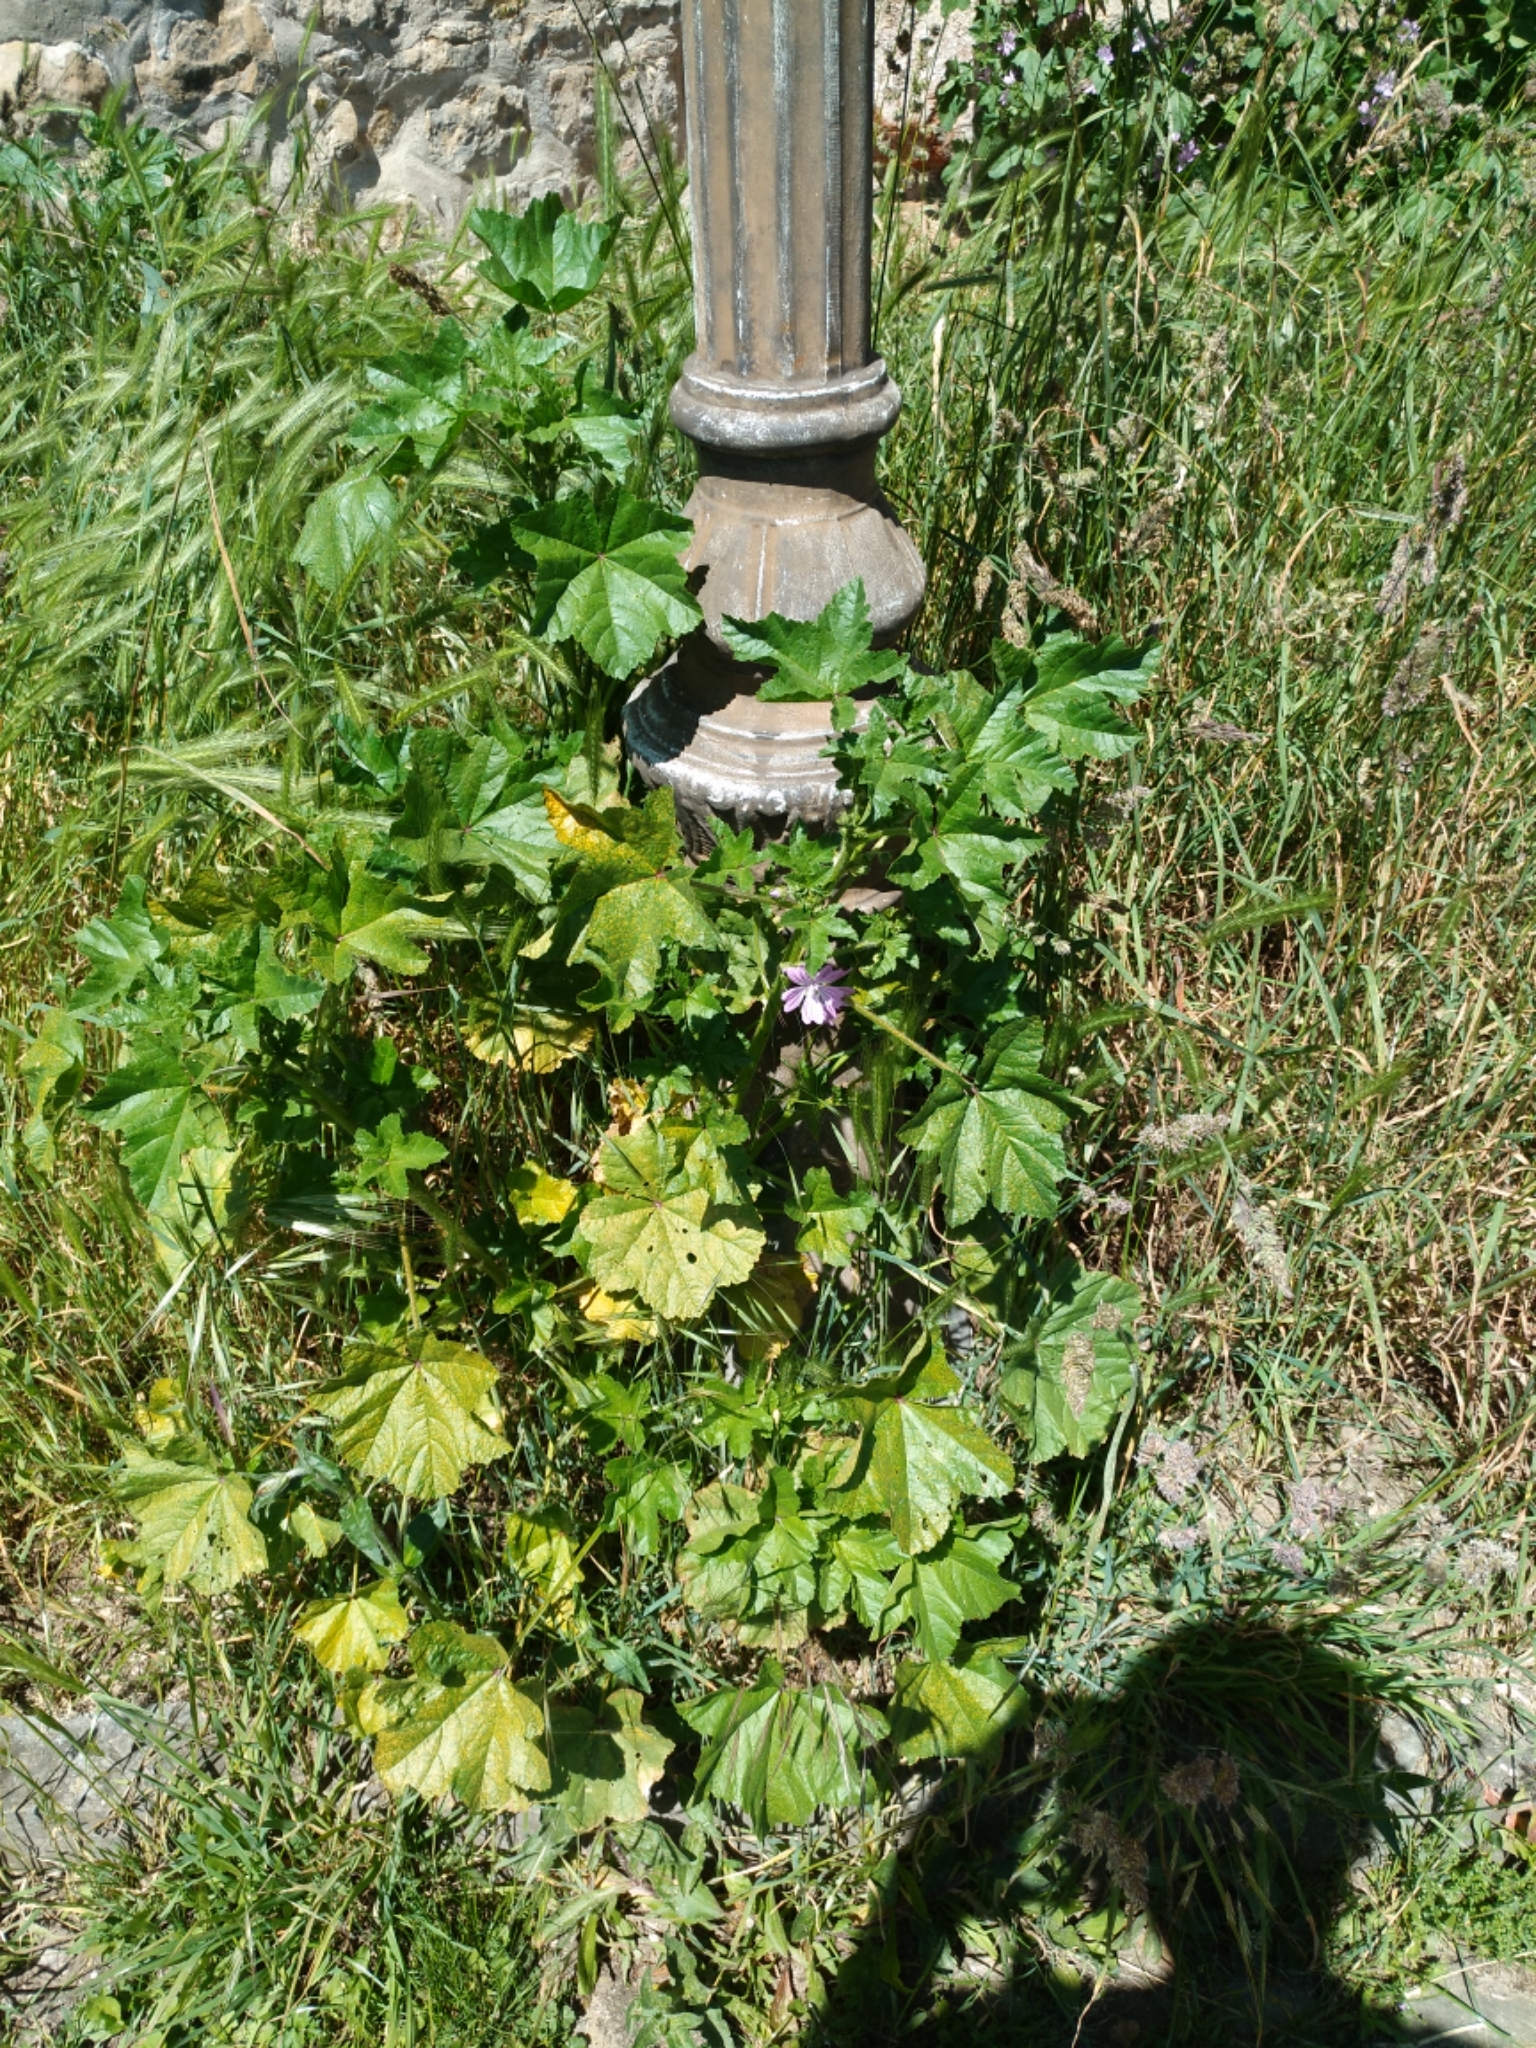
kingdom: Plantae
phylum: Tracheophyta
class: Magnoliopsida
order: Malvales
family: Malvaceae
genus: Malva
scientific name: Malva sylvestris
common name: Common mallow
